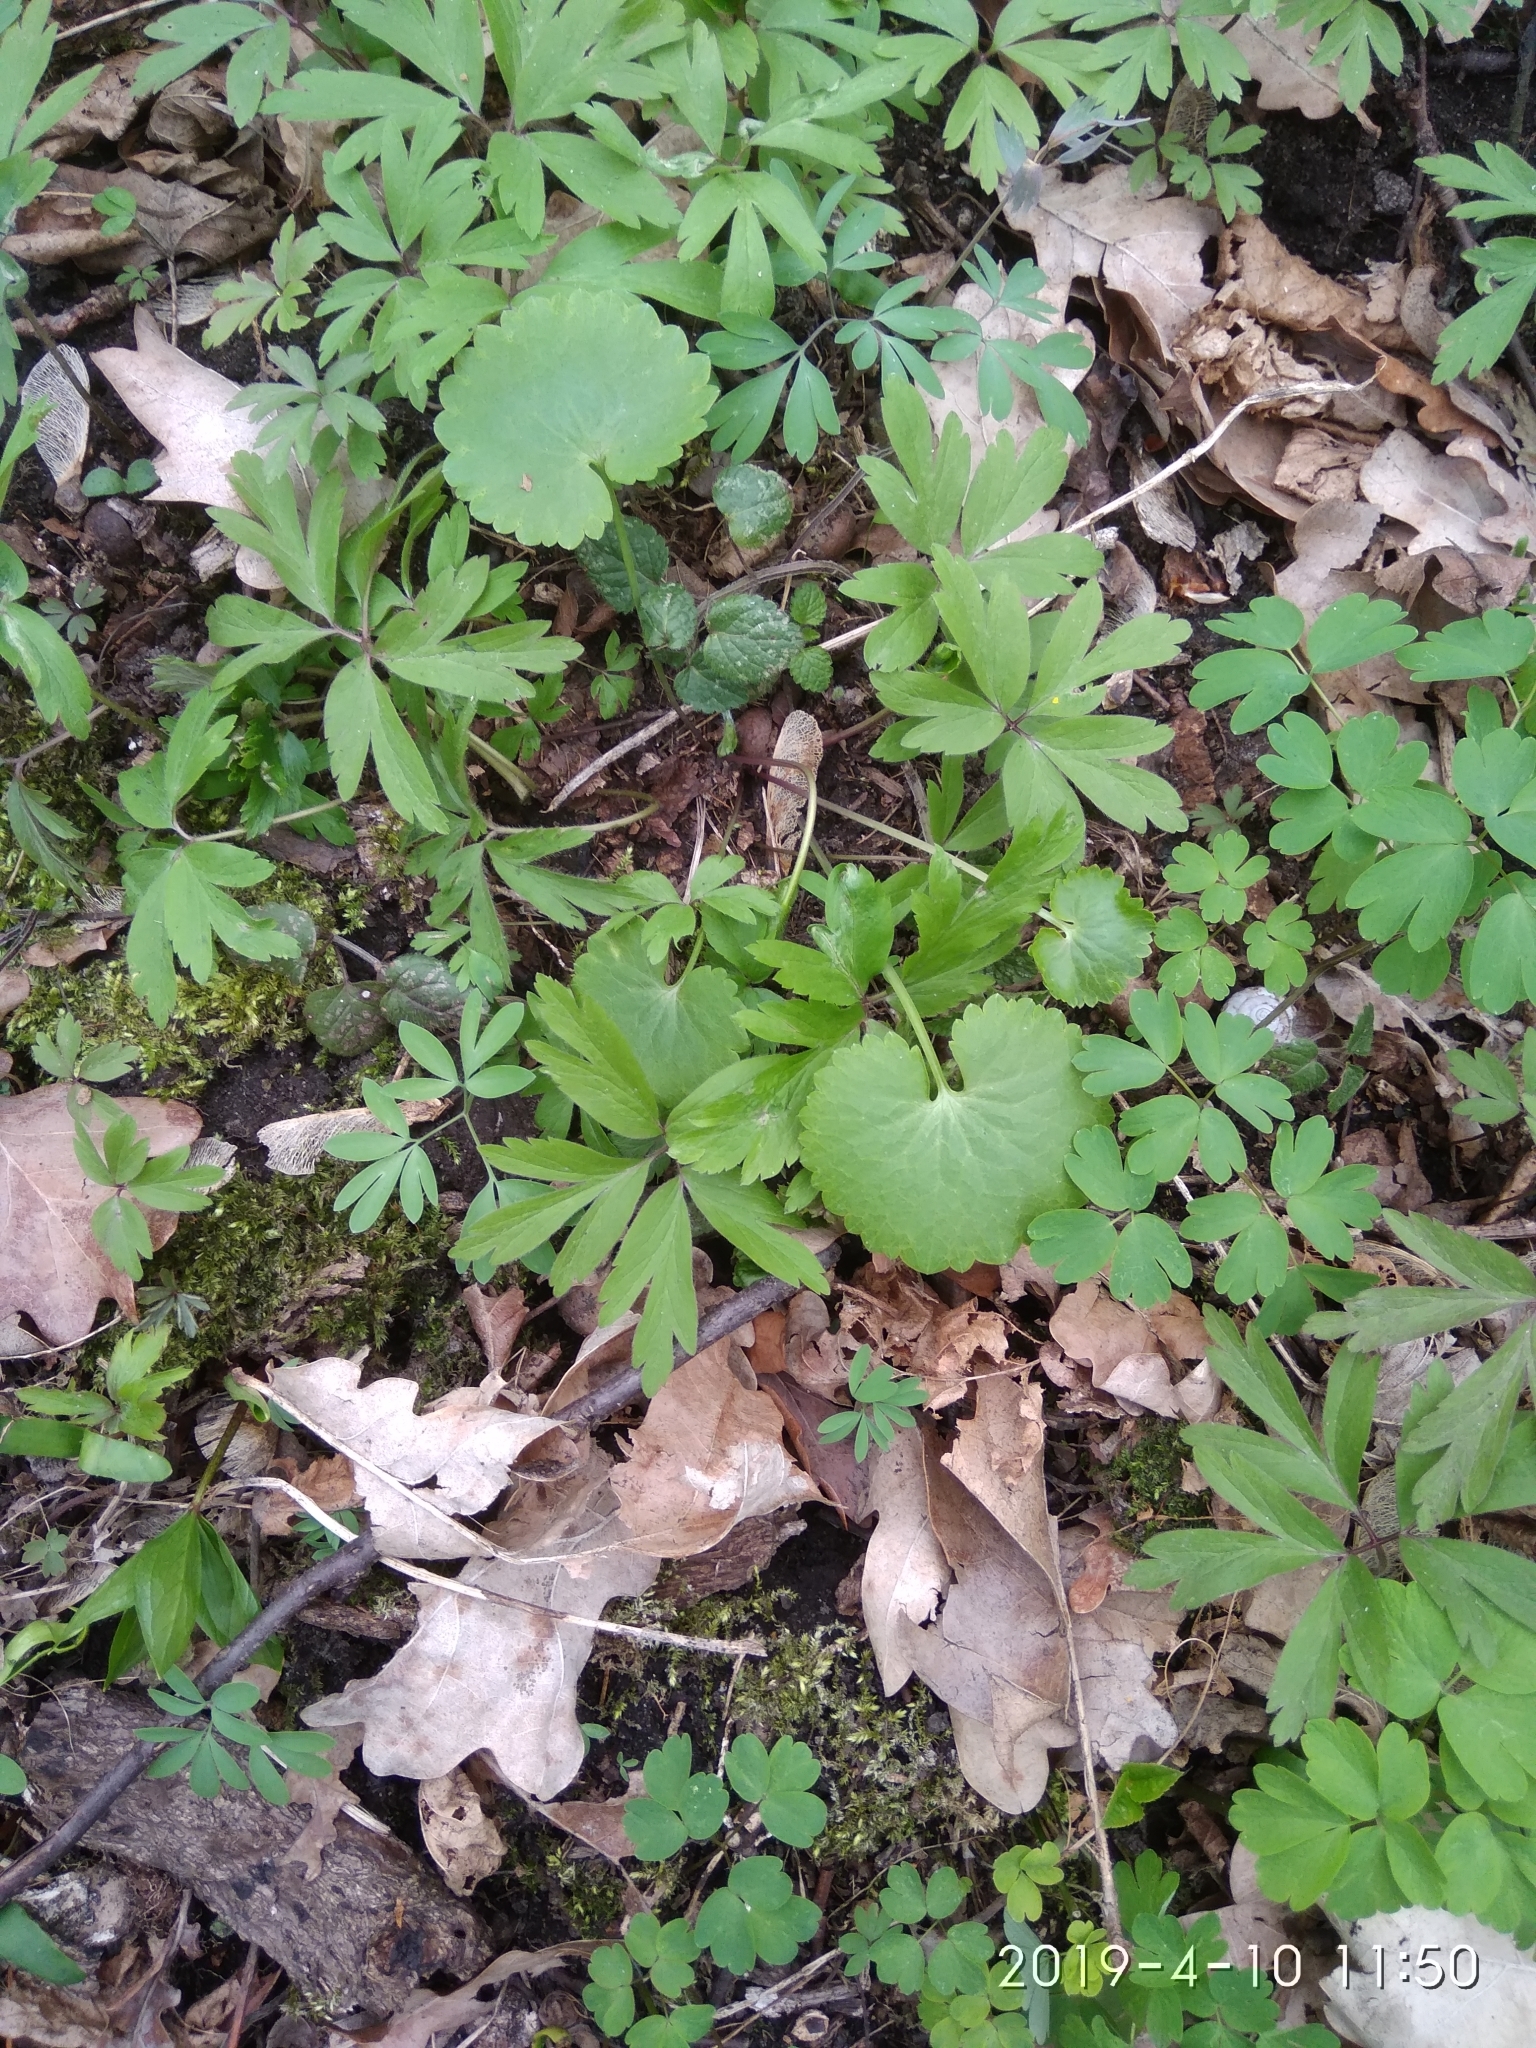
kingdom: Plantae
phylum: Tracheophyta
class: Magnoliopsida
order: Ranunculales
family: Ranunculaceae
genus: Ranunculus
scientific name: Ranunculus cassubicus
